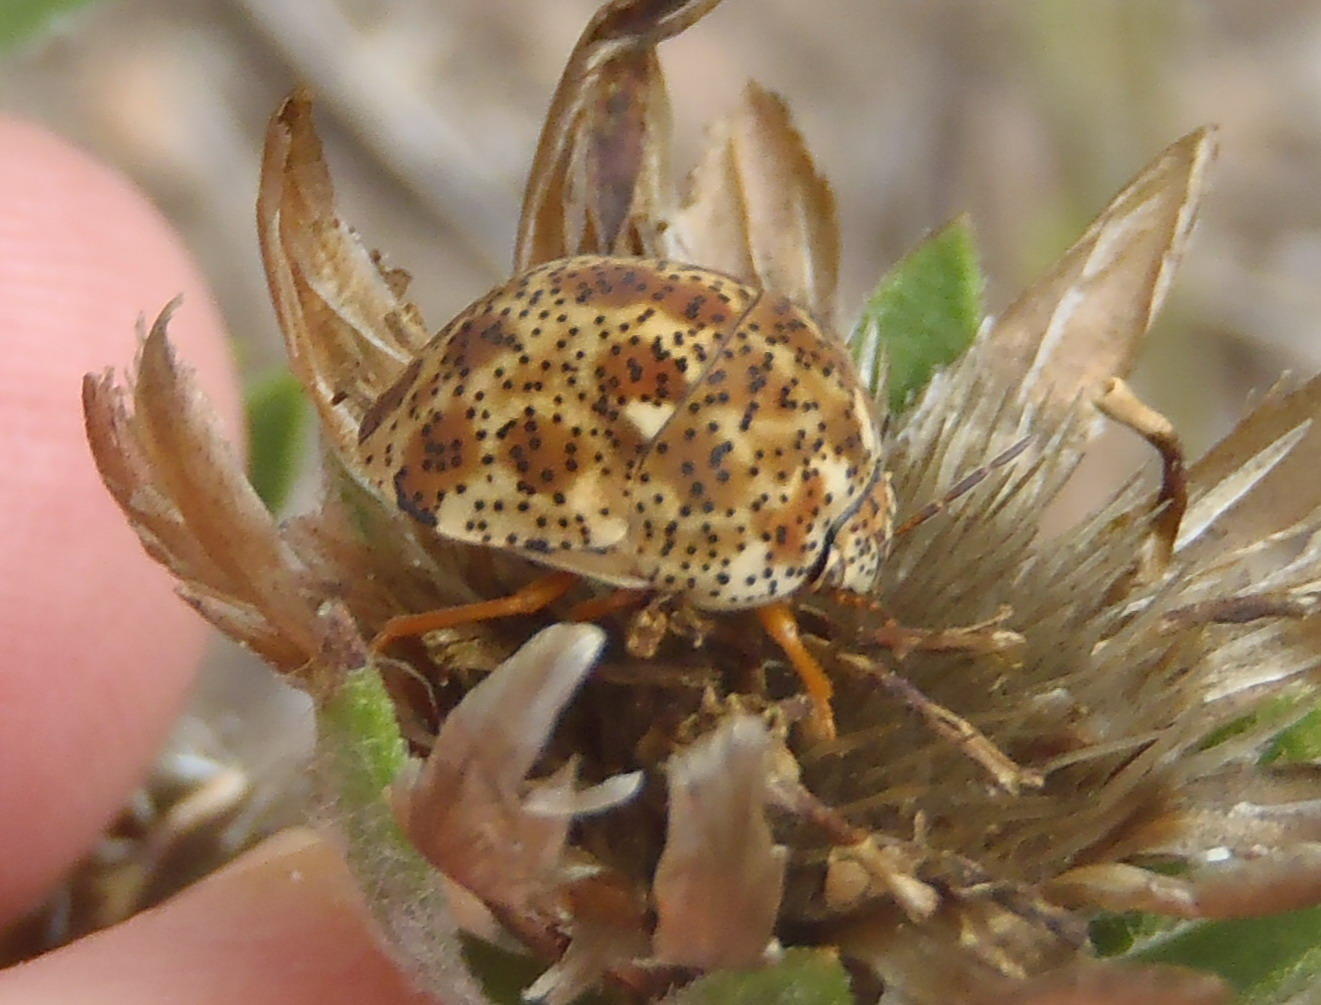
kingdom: Animalia
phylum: Arthropoda
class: Insecta
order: Hemiptera
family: Scutelleridae
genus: Sphaerocoris
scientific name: Sphaerocoris
